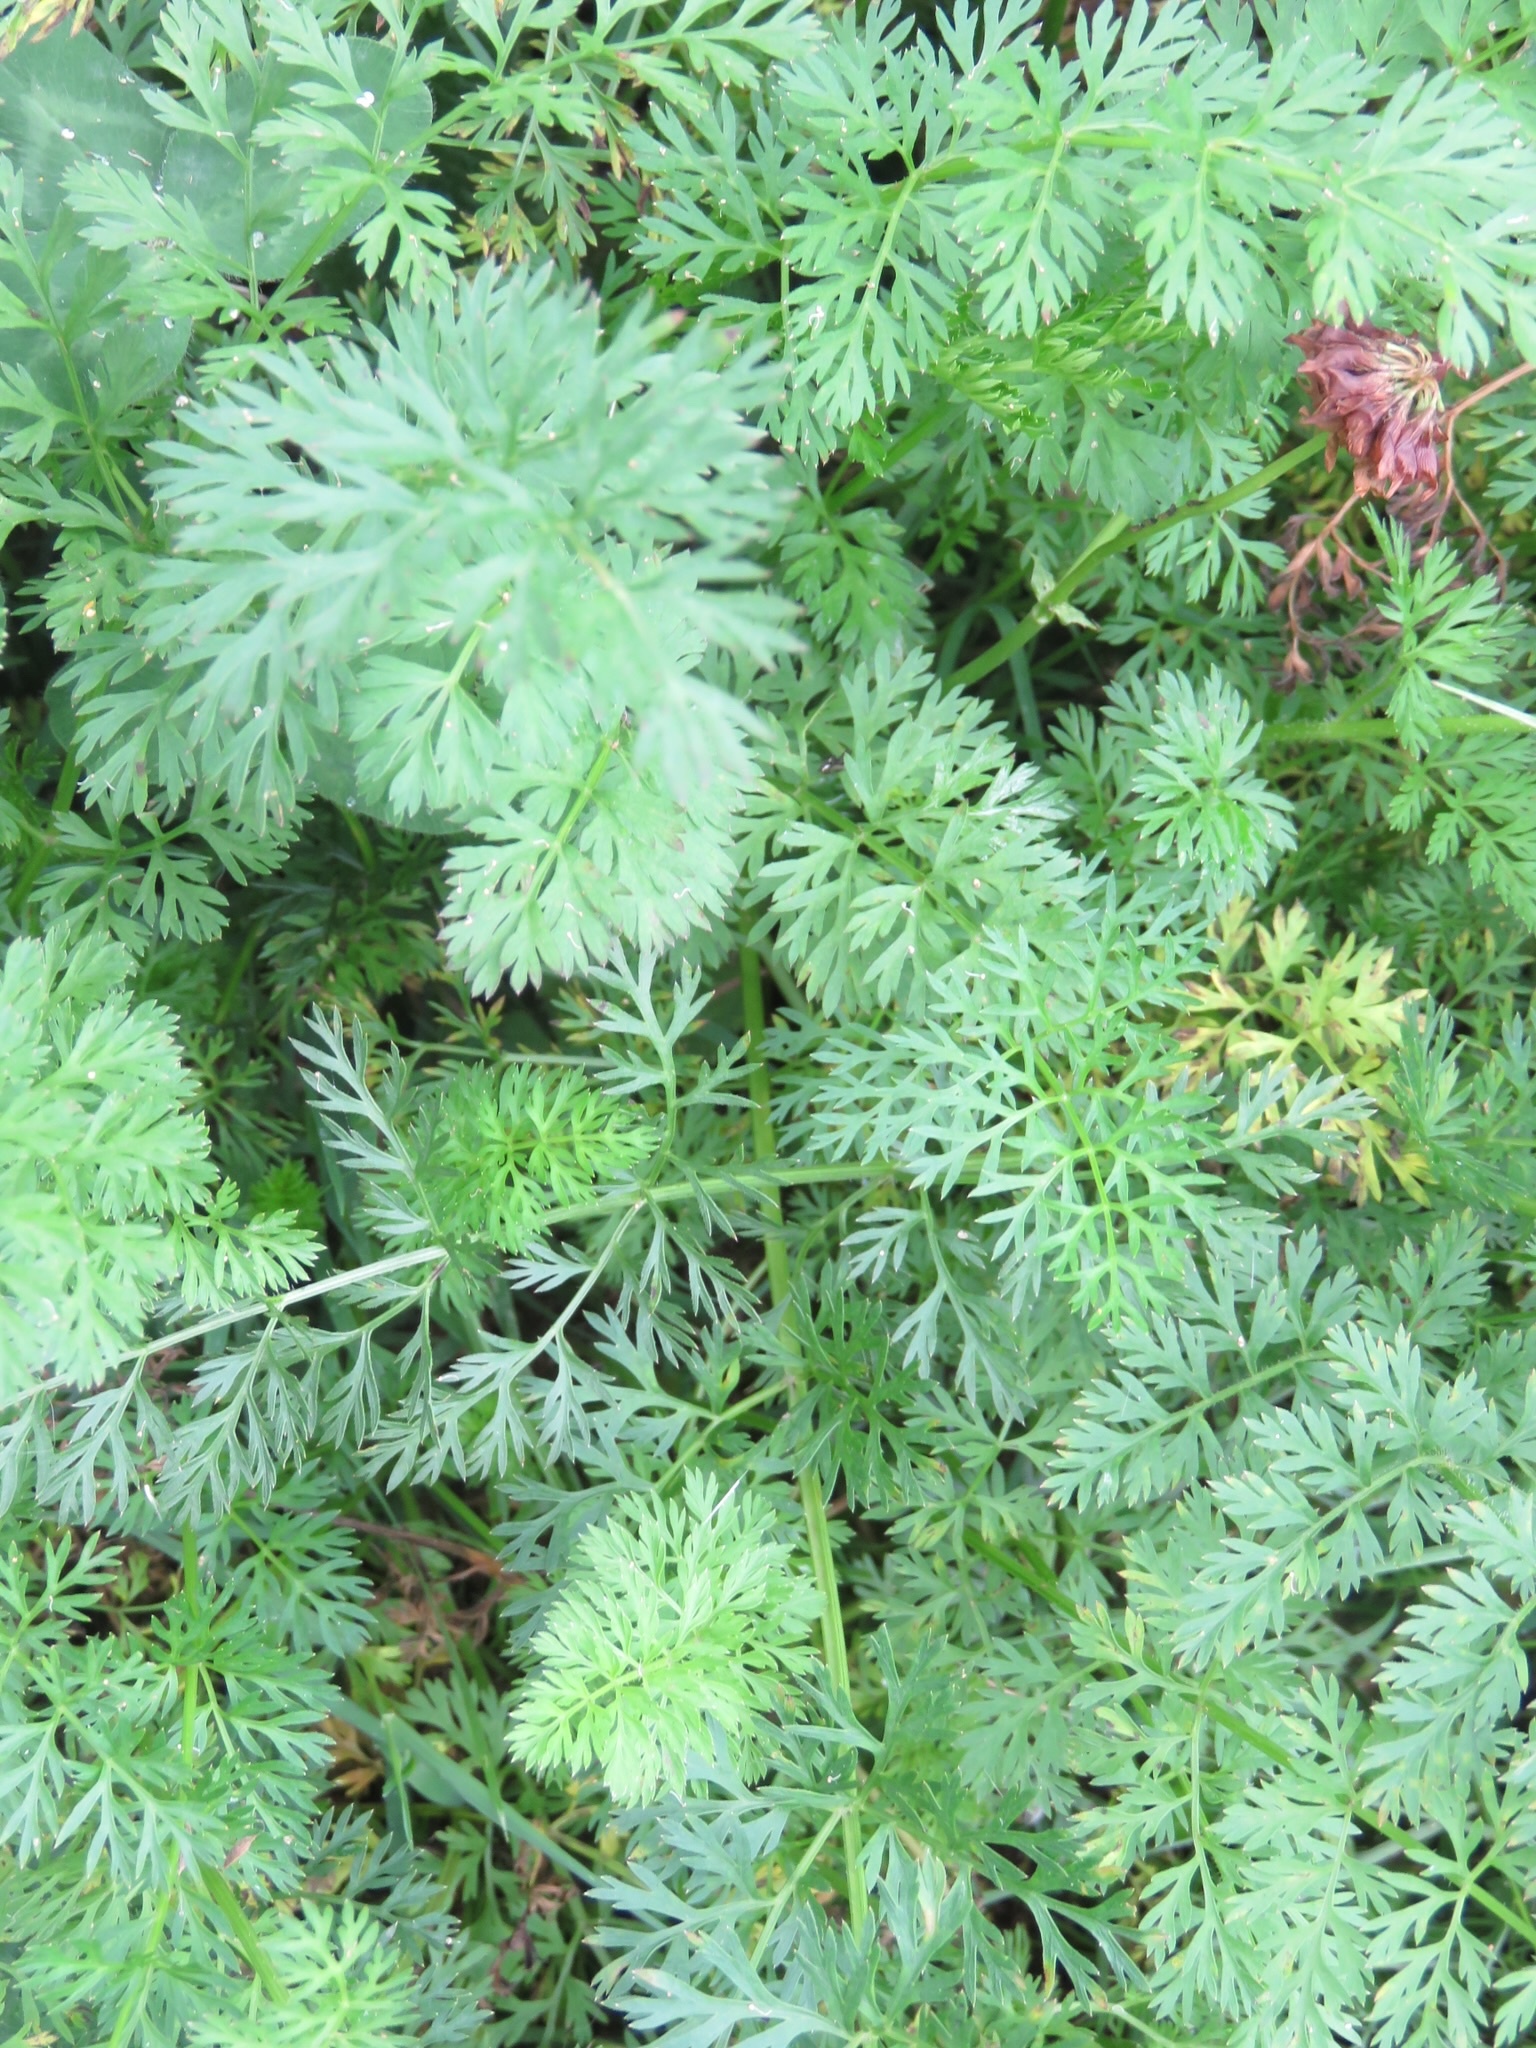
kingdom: Plantae
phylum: Tracheophyta
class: Magnoliopsida
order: Apiales
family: Apiaceae
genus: Daucus
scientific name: Daucus carota
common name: Wild carrot
